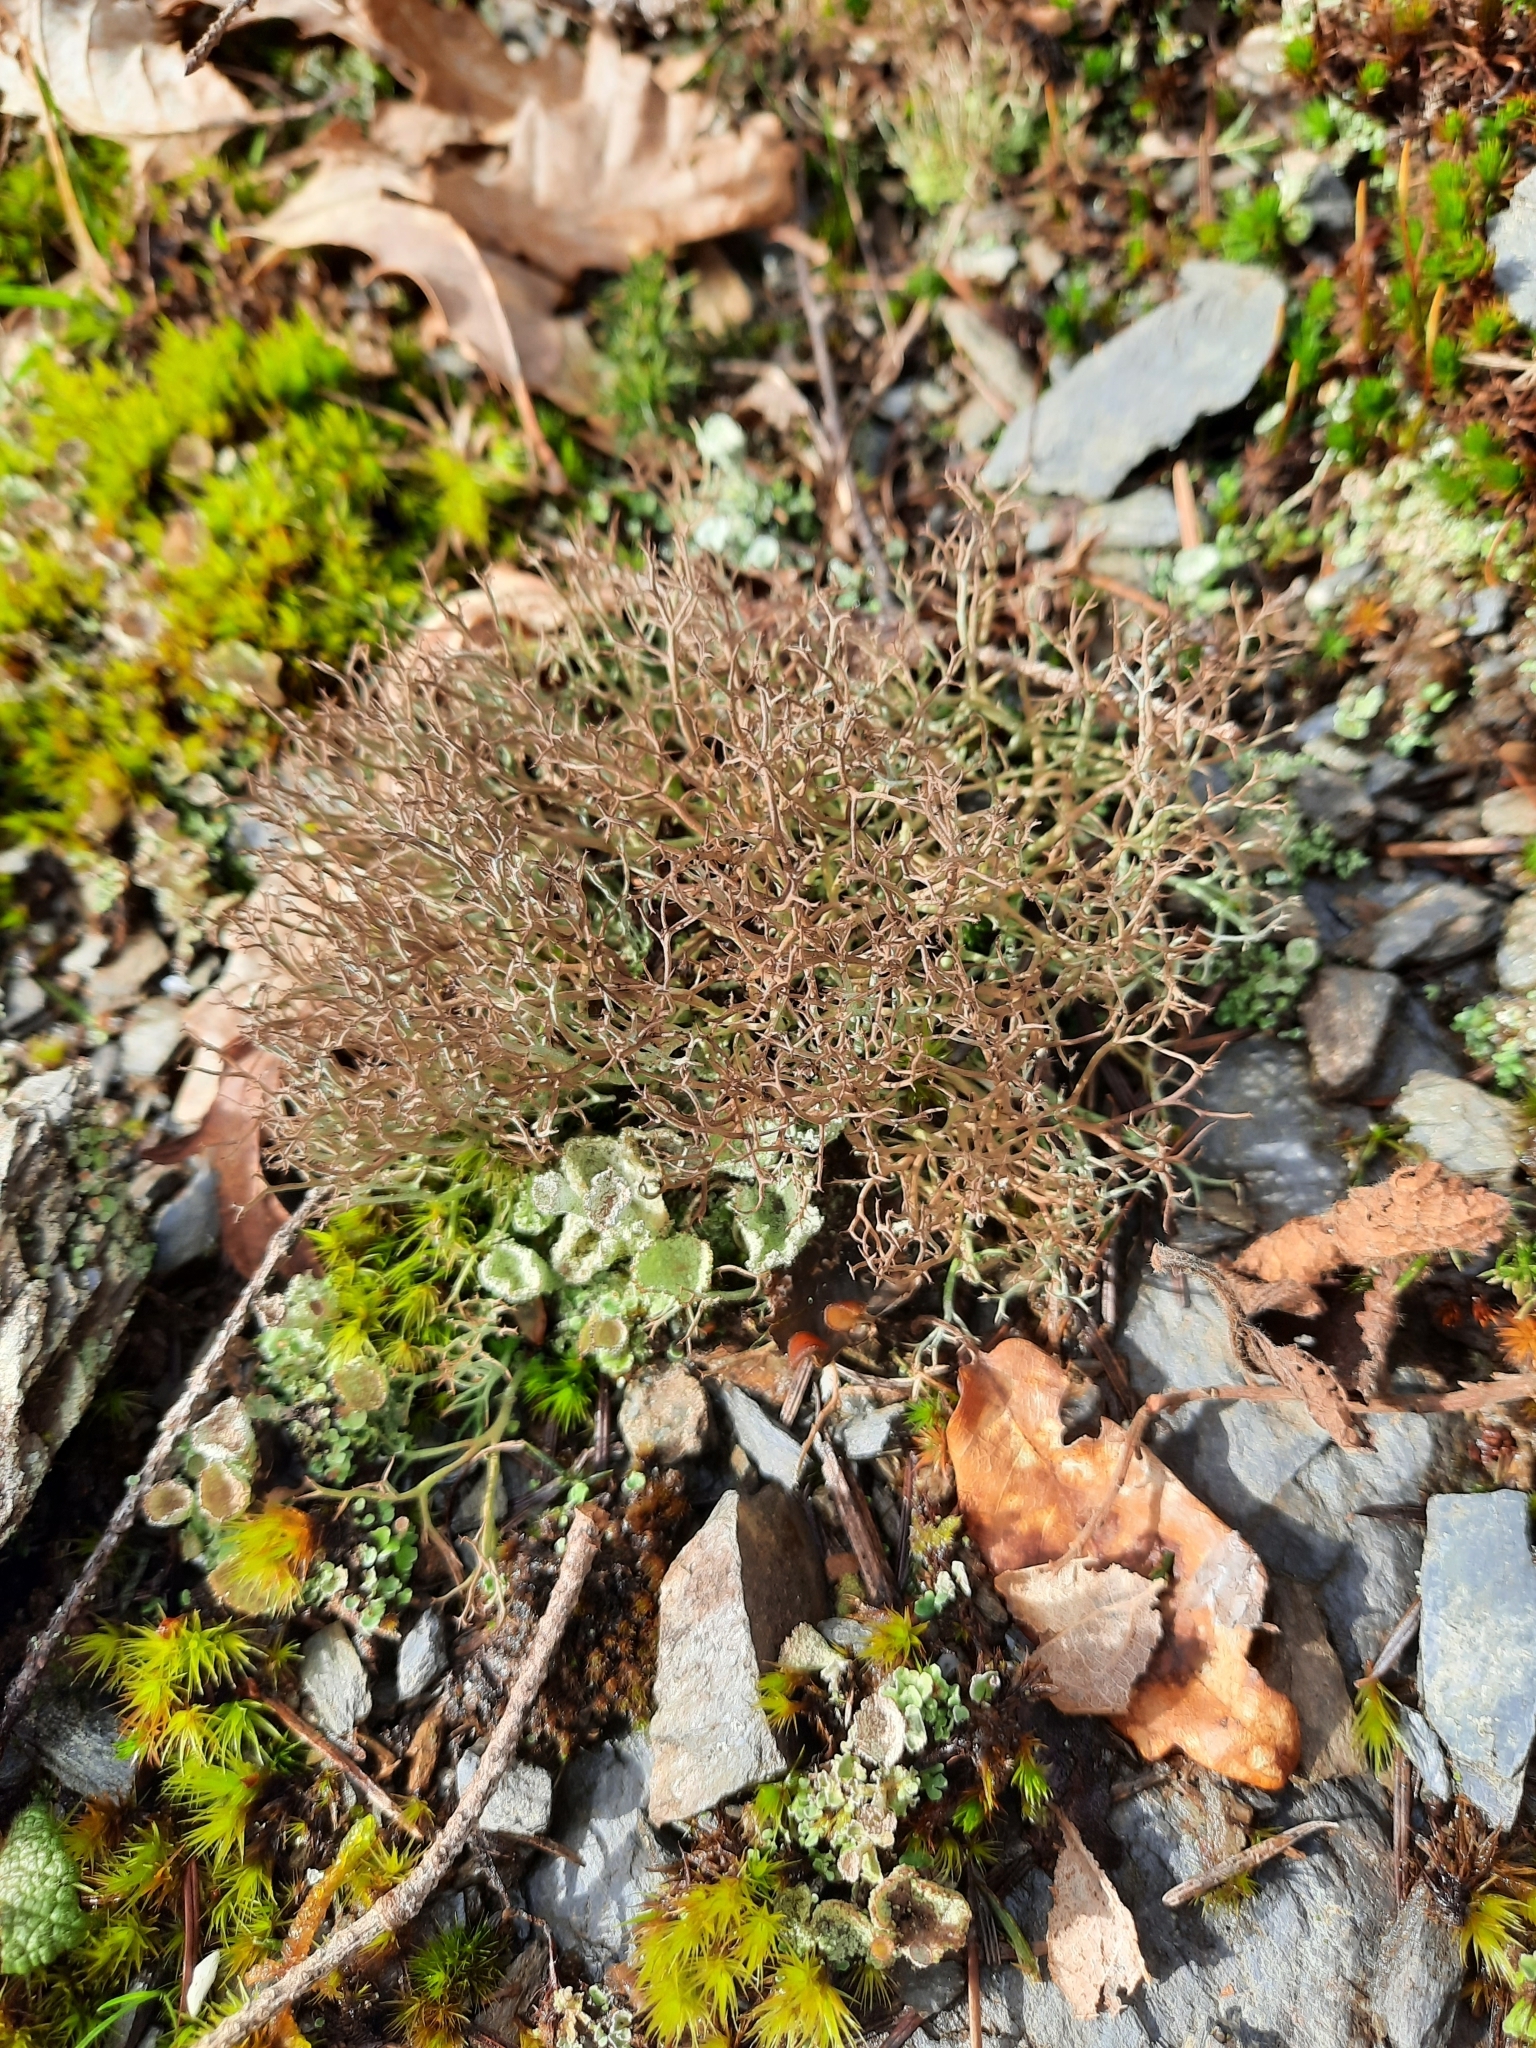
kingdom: Fungi
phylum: Ascomycota
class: Lecanoromycetes
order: Lecanorales
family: Cladoniaceae
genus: Cladonia
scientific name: Cladonia furcata
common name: Many-forked cladonia
